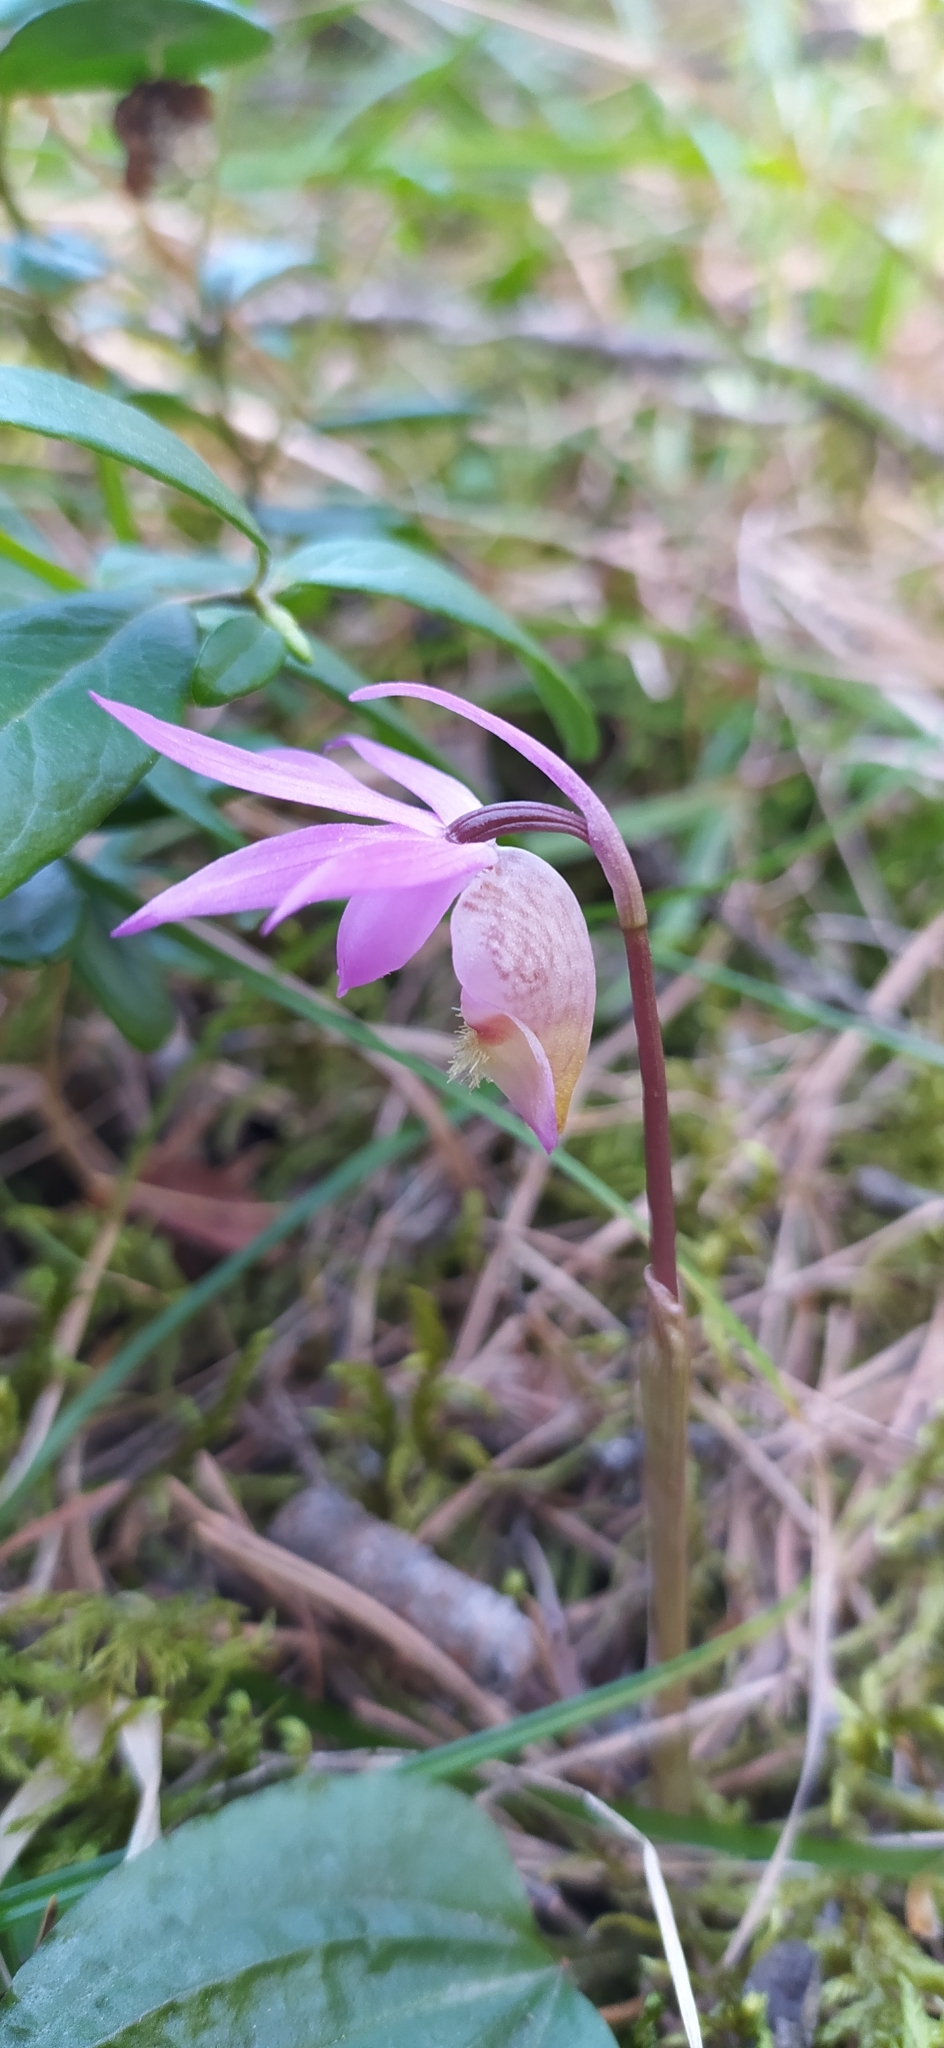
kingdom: Plantae
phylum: Tracheophyta
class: Liliopsida
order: Asparagales
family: Orchidaceae
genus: Calypso
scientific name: Calypso bulbosa
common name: Calypso
